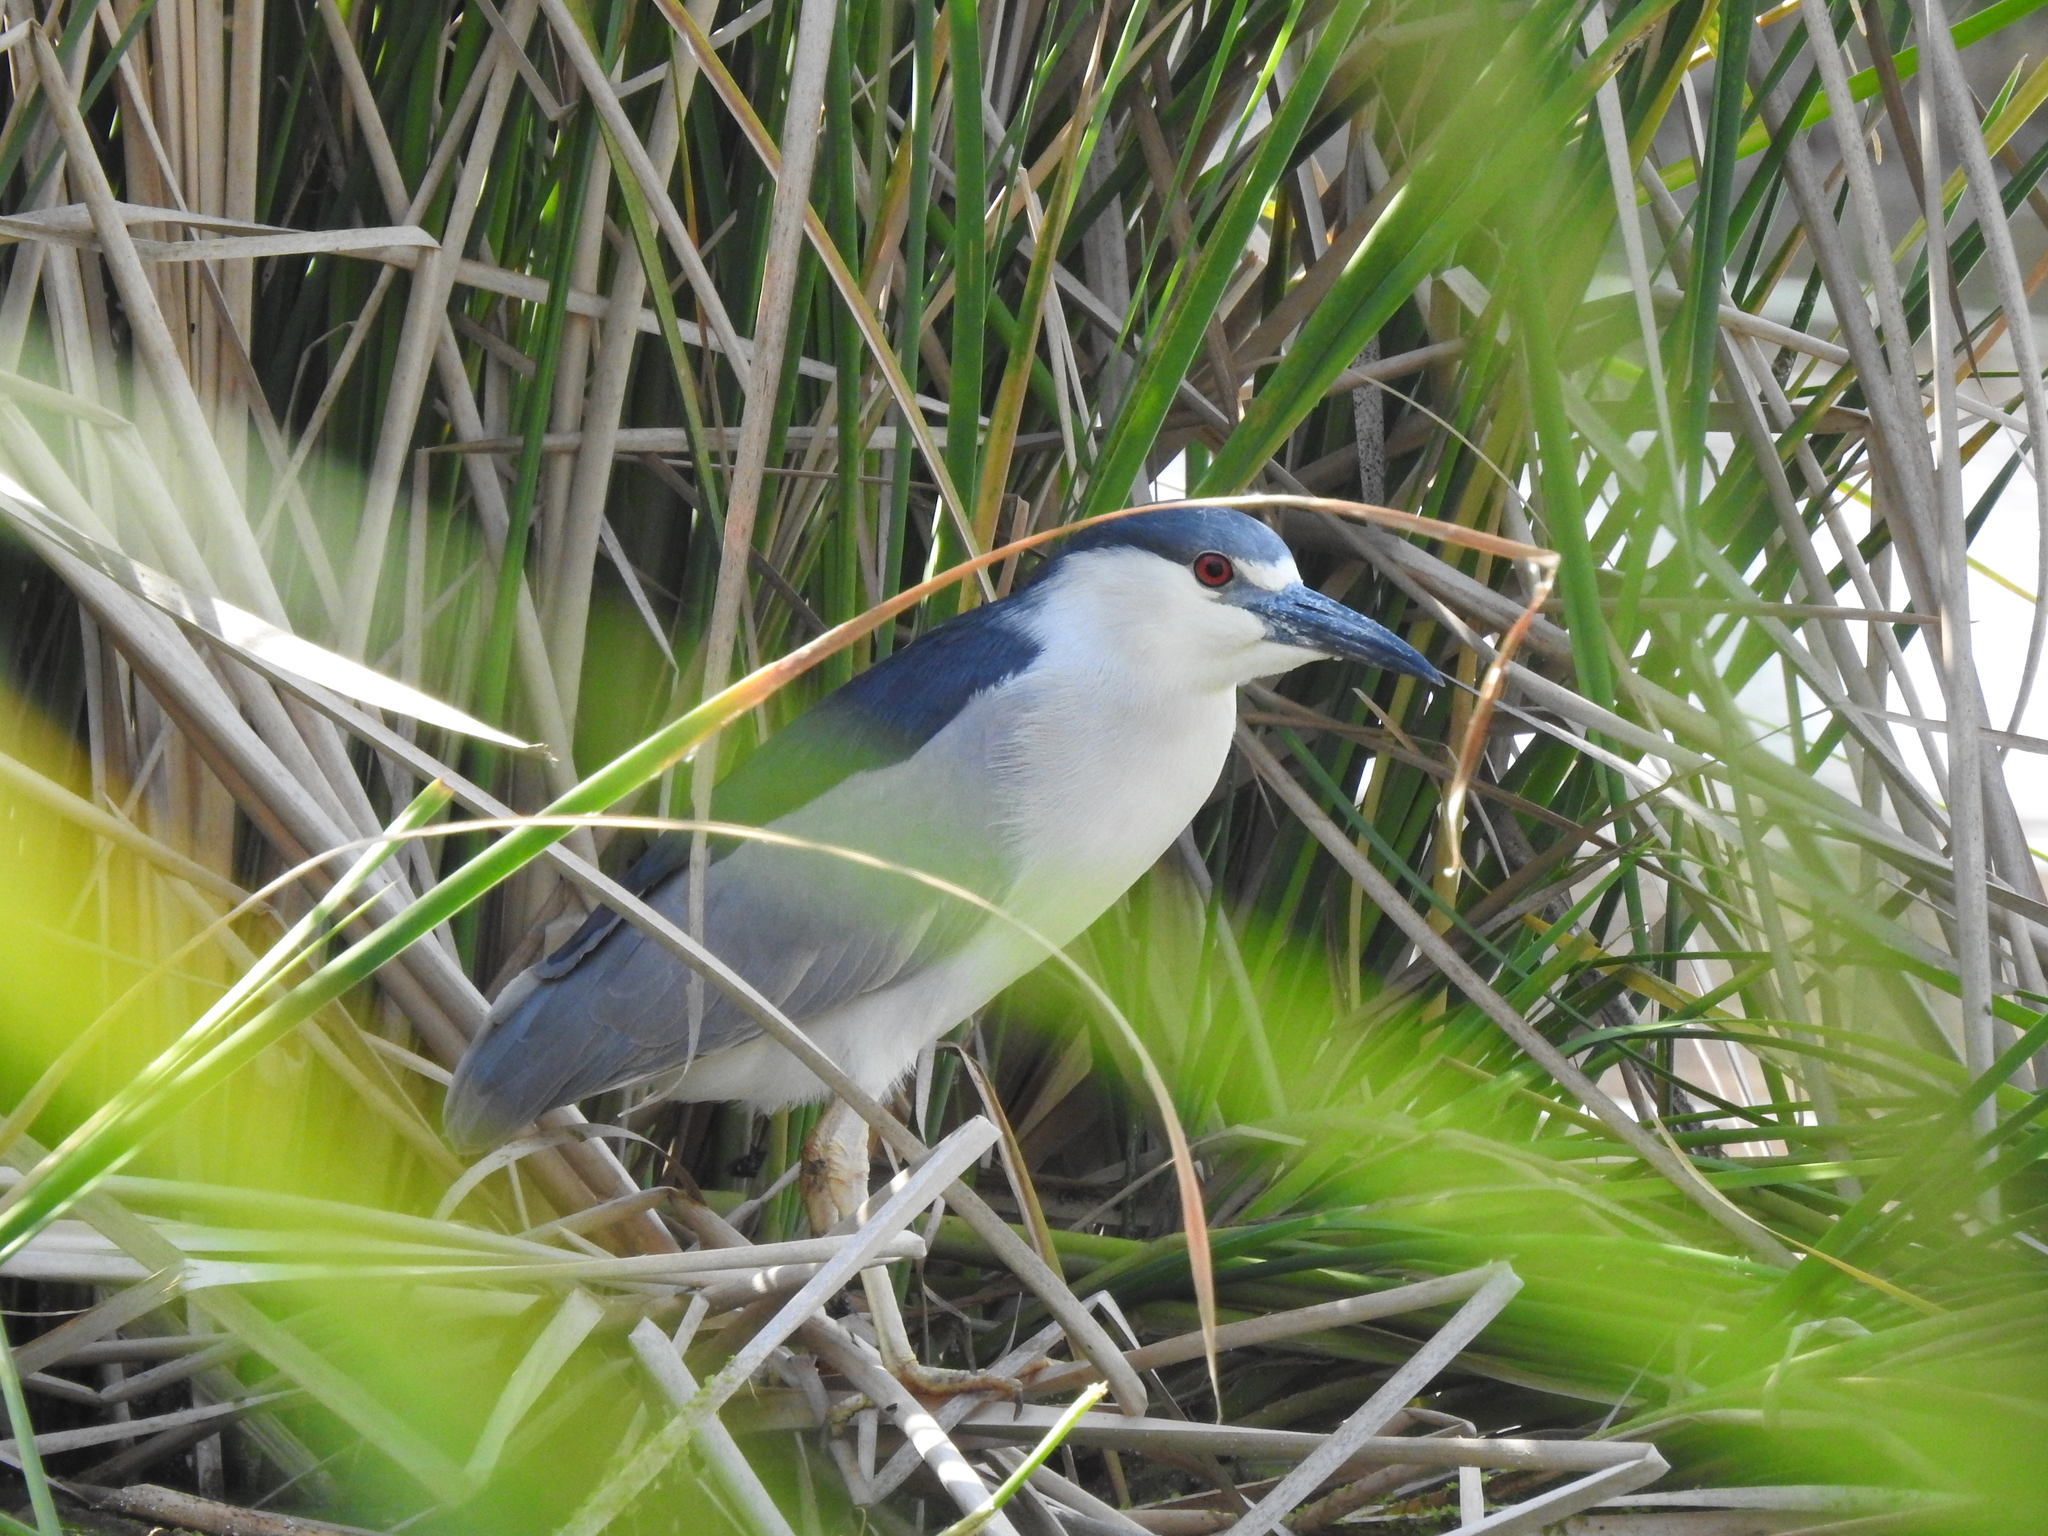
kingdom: Animalia
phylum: Chordata
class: Aves
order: Pelecaniformes
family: Ardeidae
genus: Nycticorax
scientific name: Nycticorax nycticorax
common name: Black-crowned night heron
